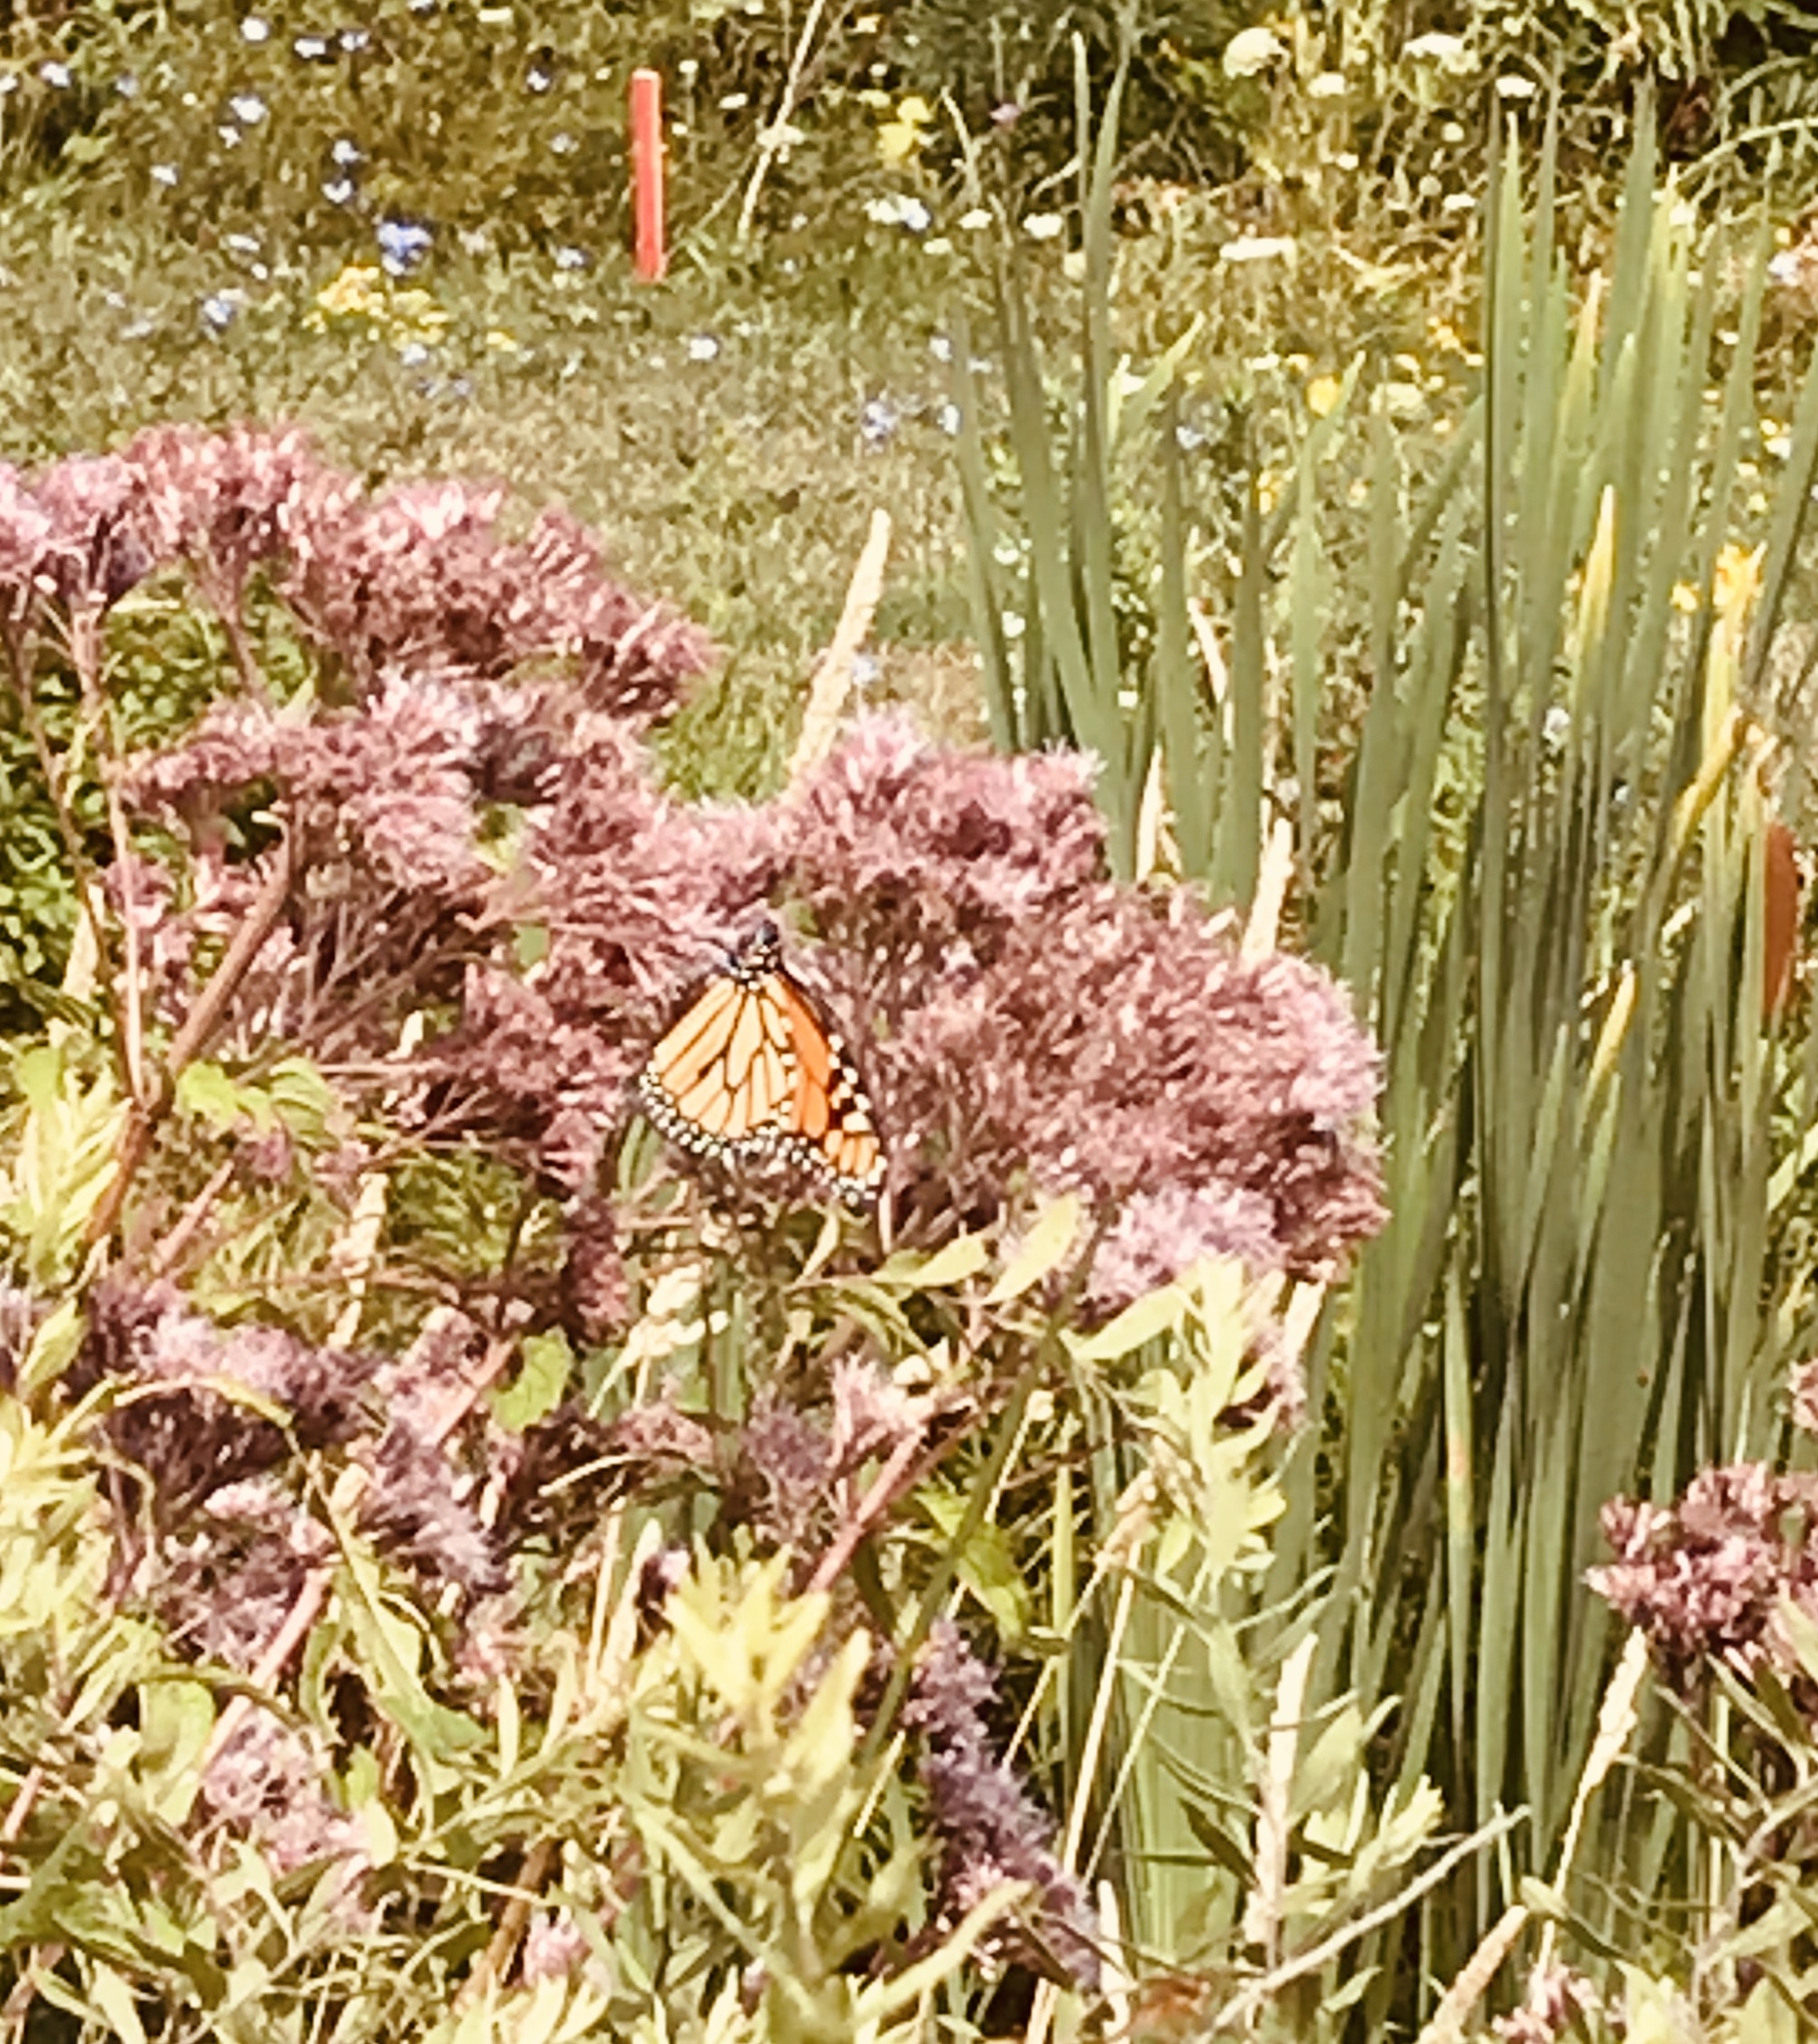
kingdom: Animalia
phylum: Arthropoda
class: Insecta
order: Lepidoptera
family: Nymphalidae
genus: Danaus
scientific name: Danaus plexippus
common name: Monarch
